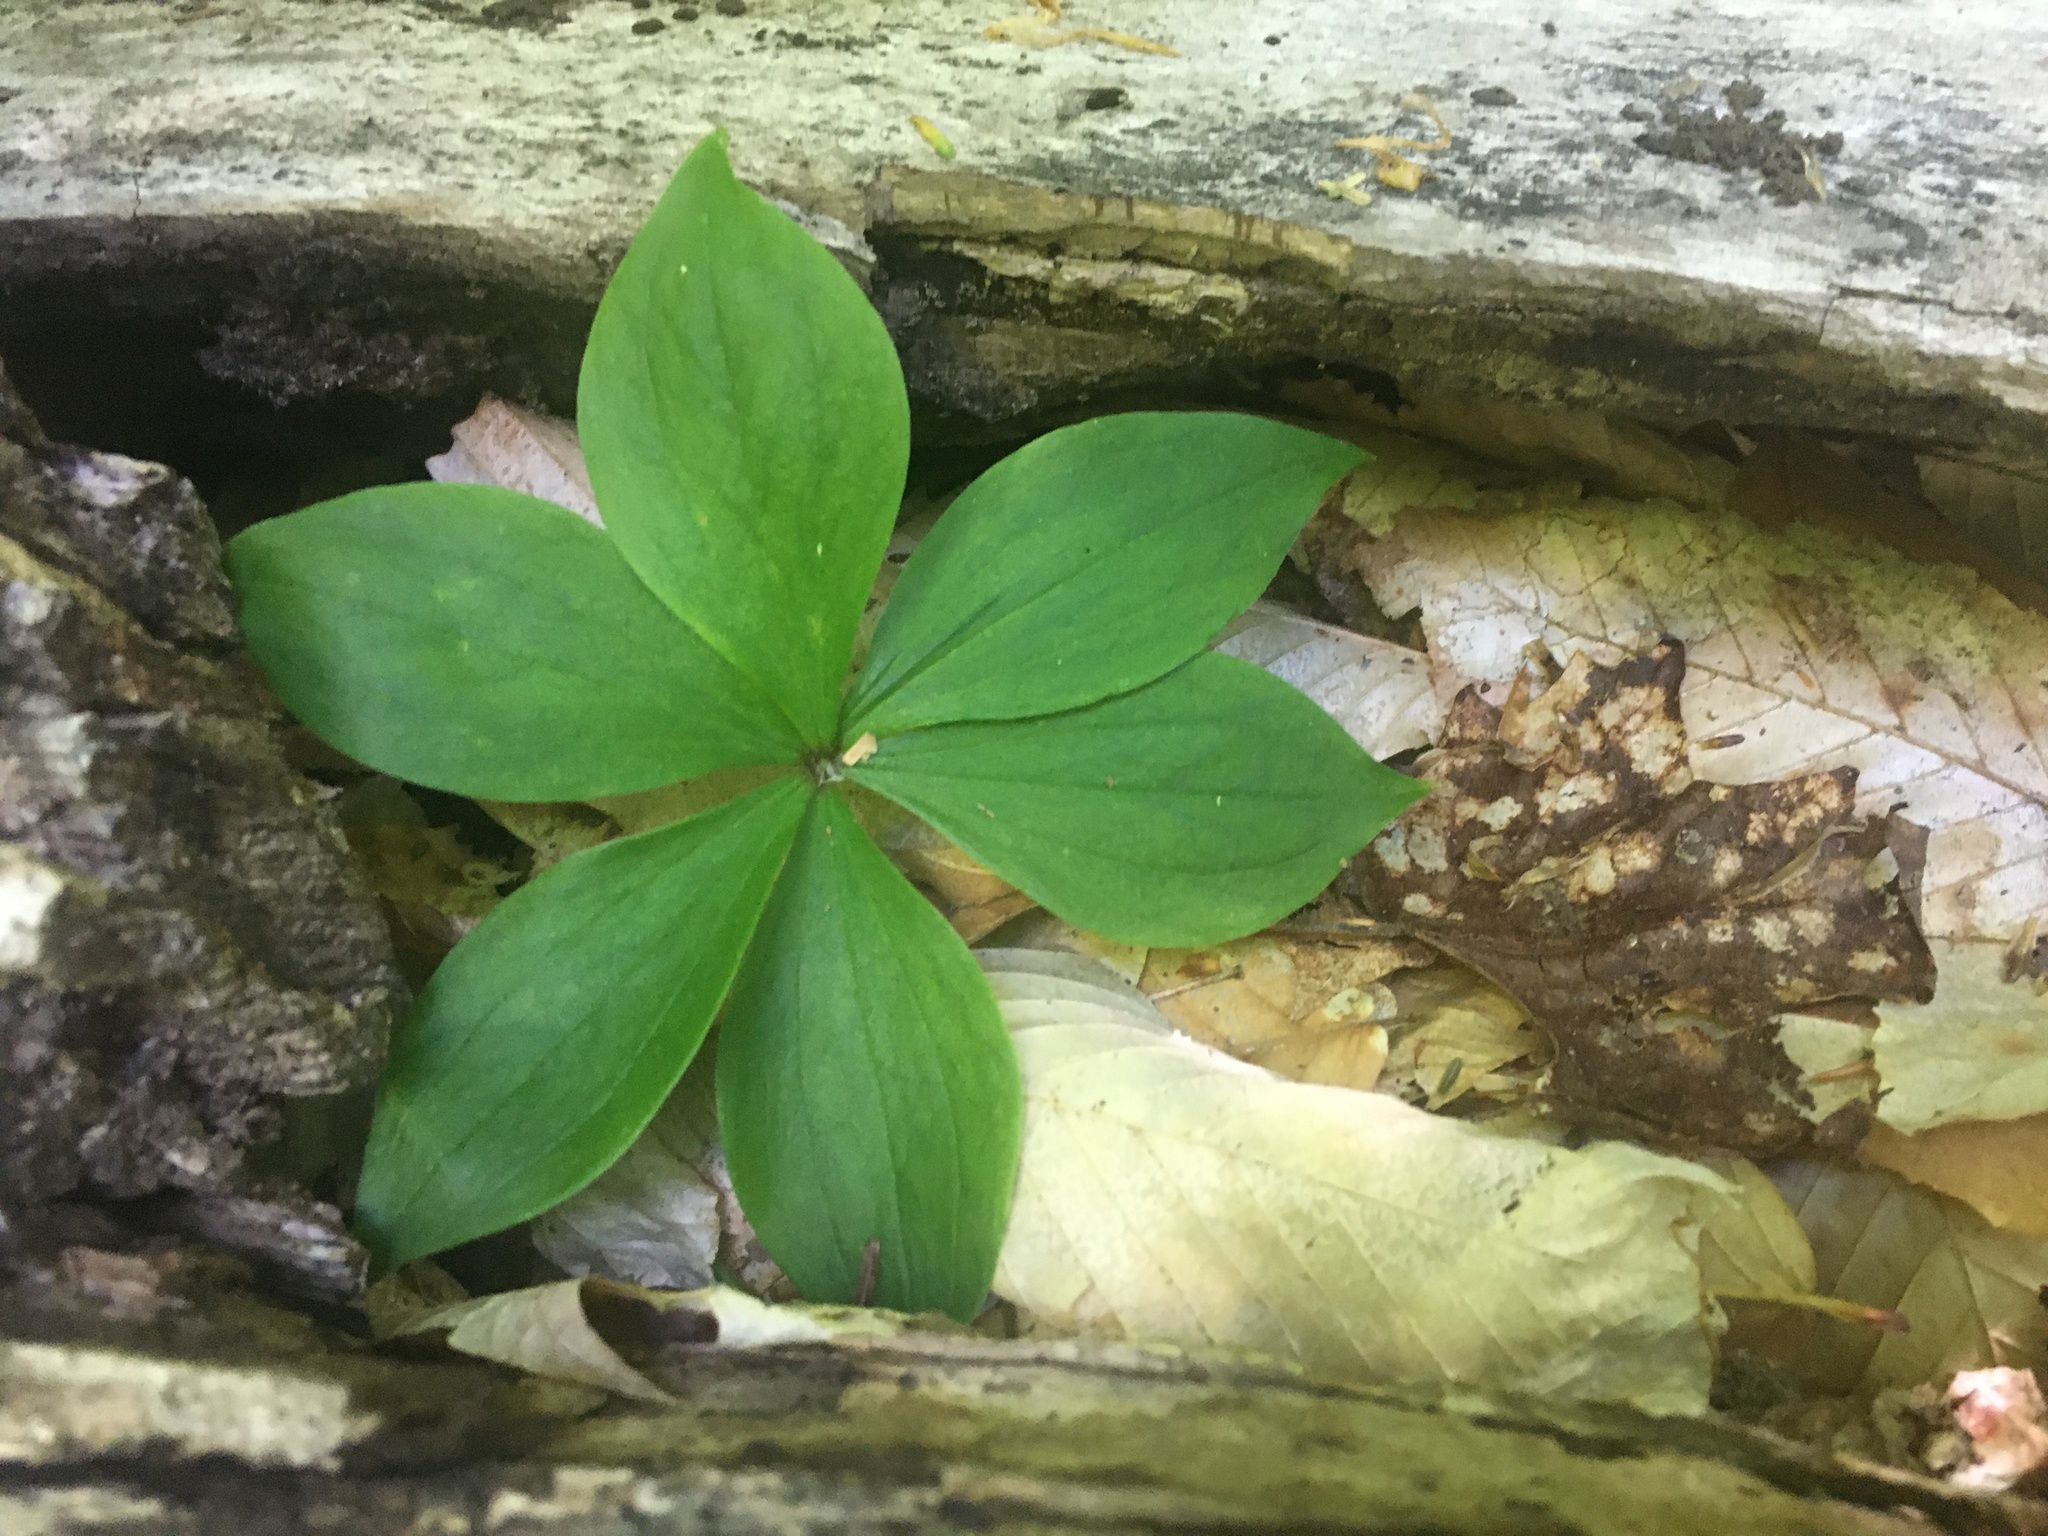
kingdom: Plantae
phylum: Tracheophyta
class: Magnoliopsida
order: Cornales
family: Cornaceae
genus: Cornus
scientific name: Cornus canadensis
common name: Creeping dogwood
